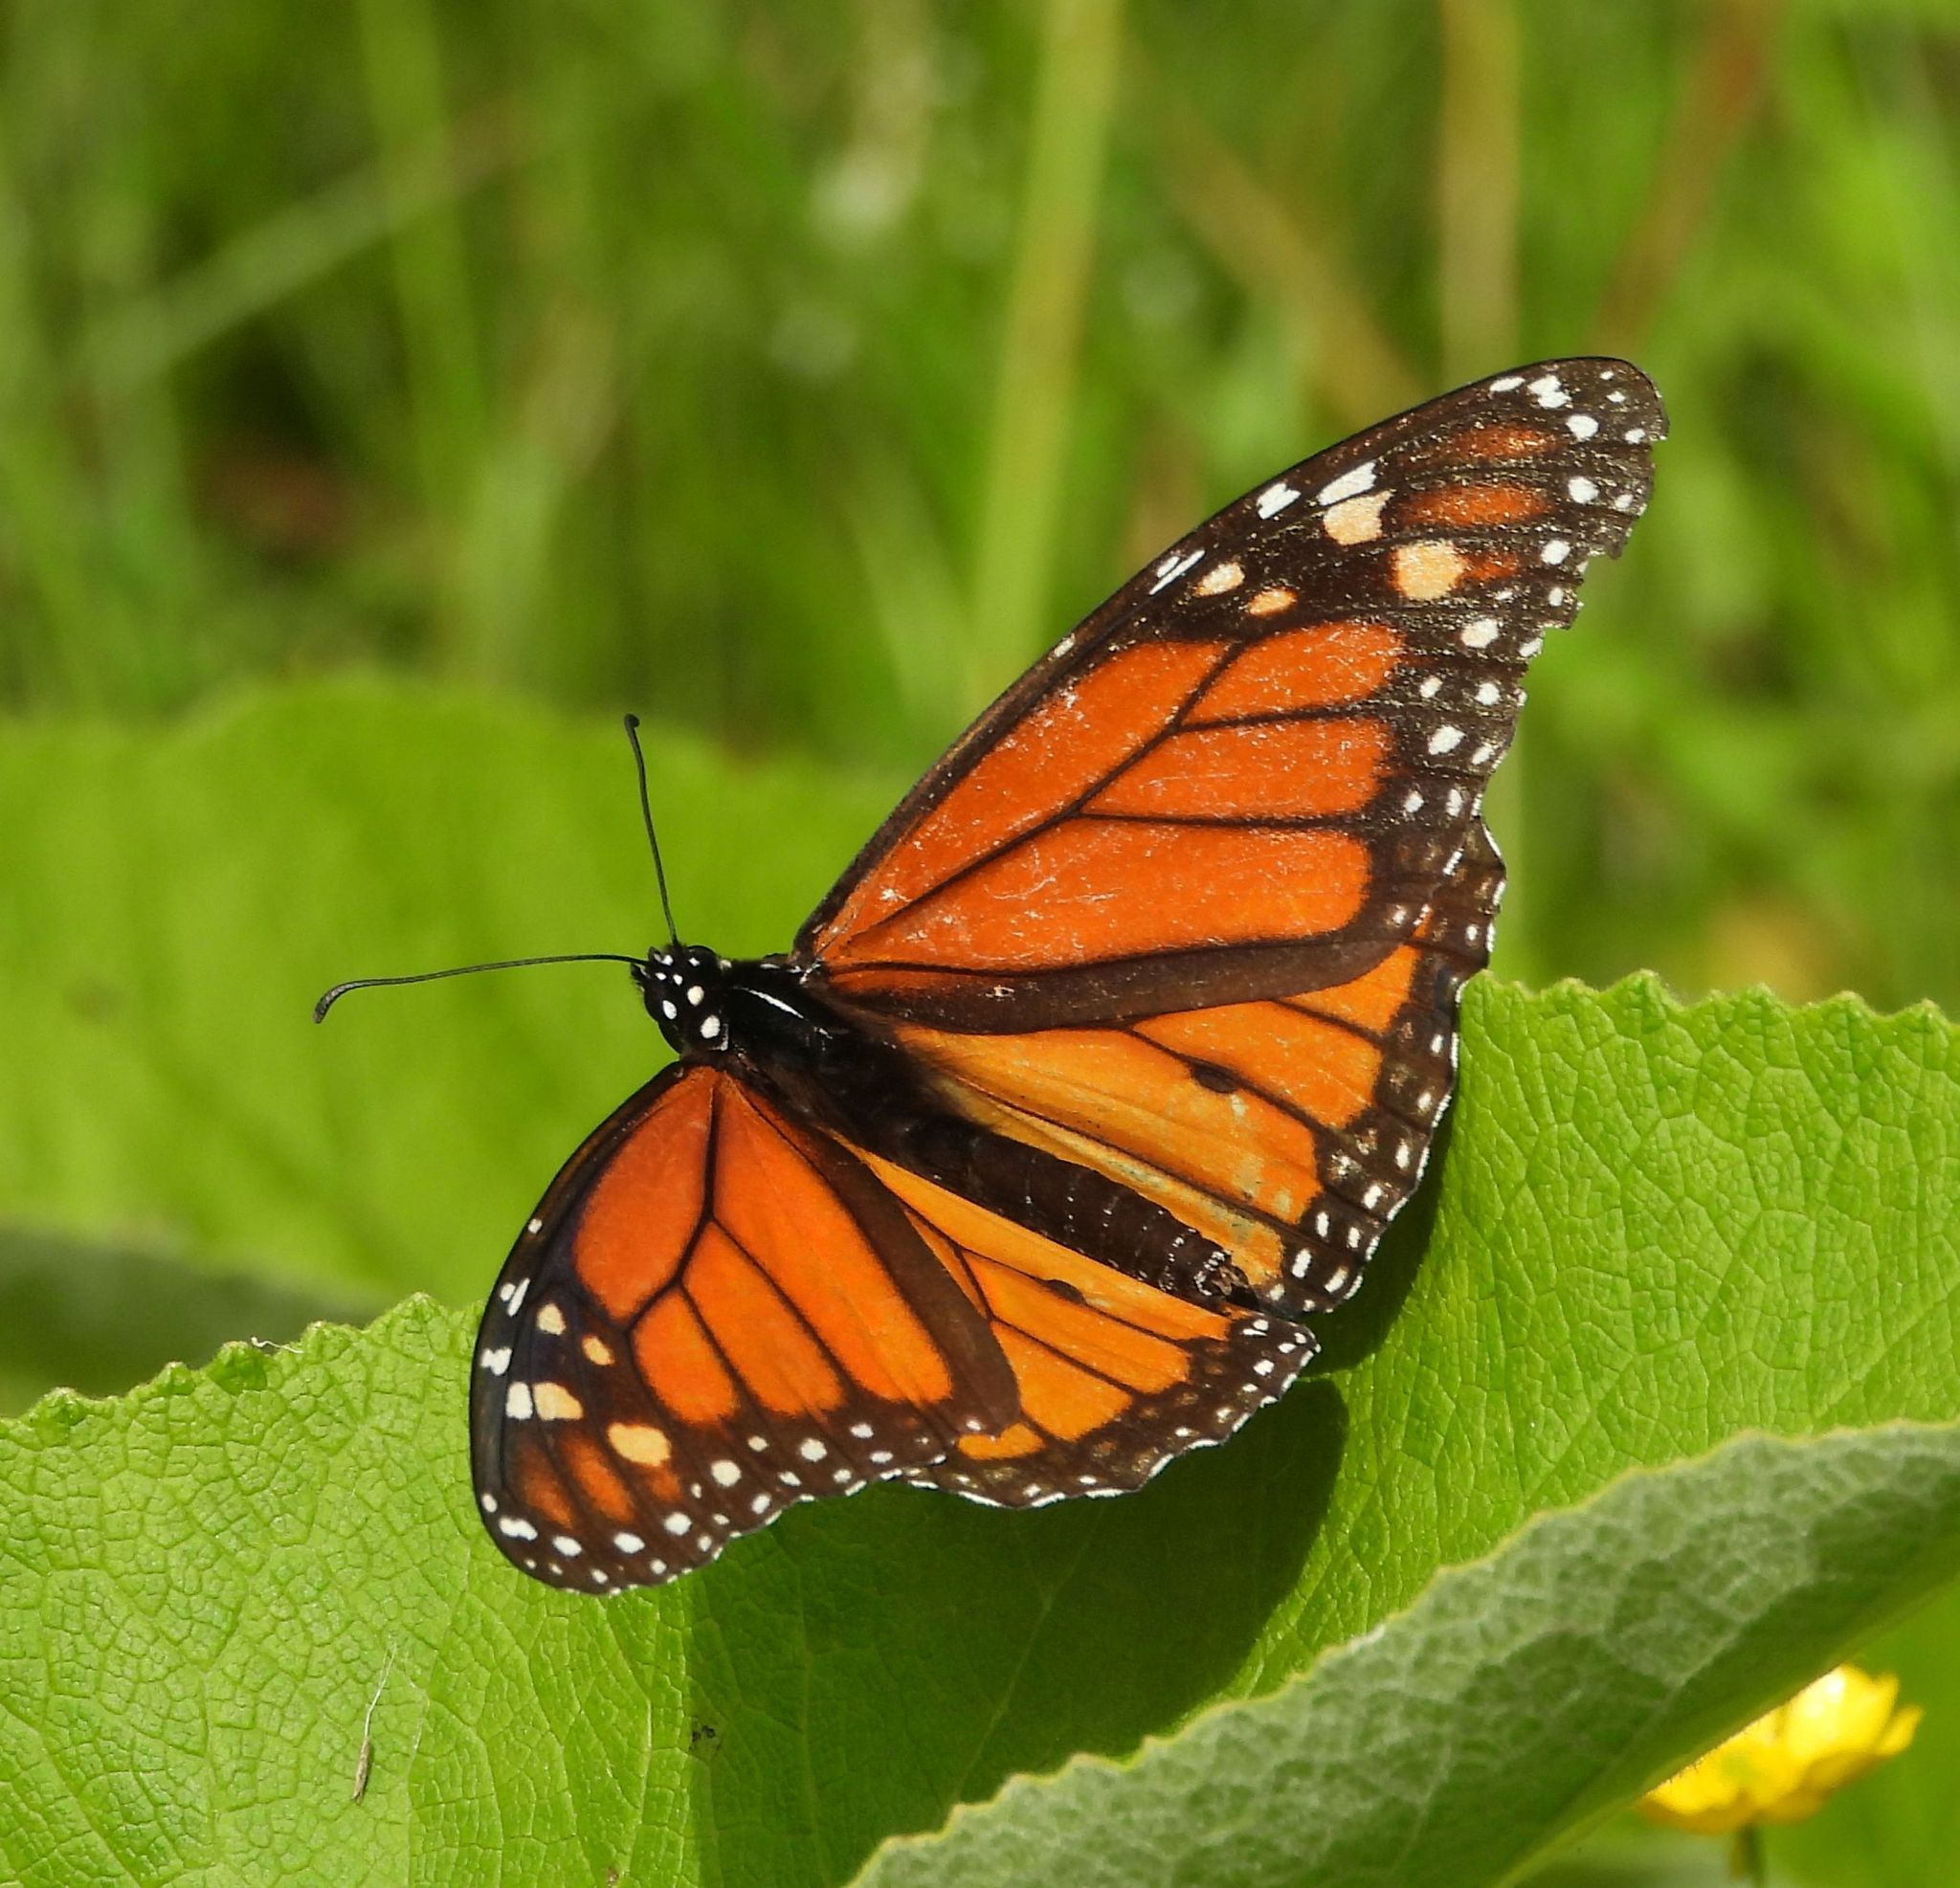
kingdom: Animalia
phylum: Arthropoda
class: Insecta
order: Lepidoptera
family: Nymphalidae
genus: Danaus
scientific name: Danaus plexippus
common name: Monarch
